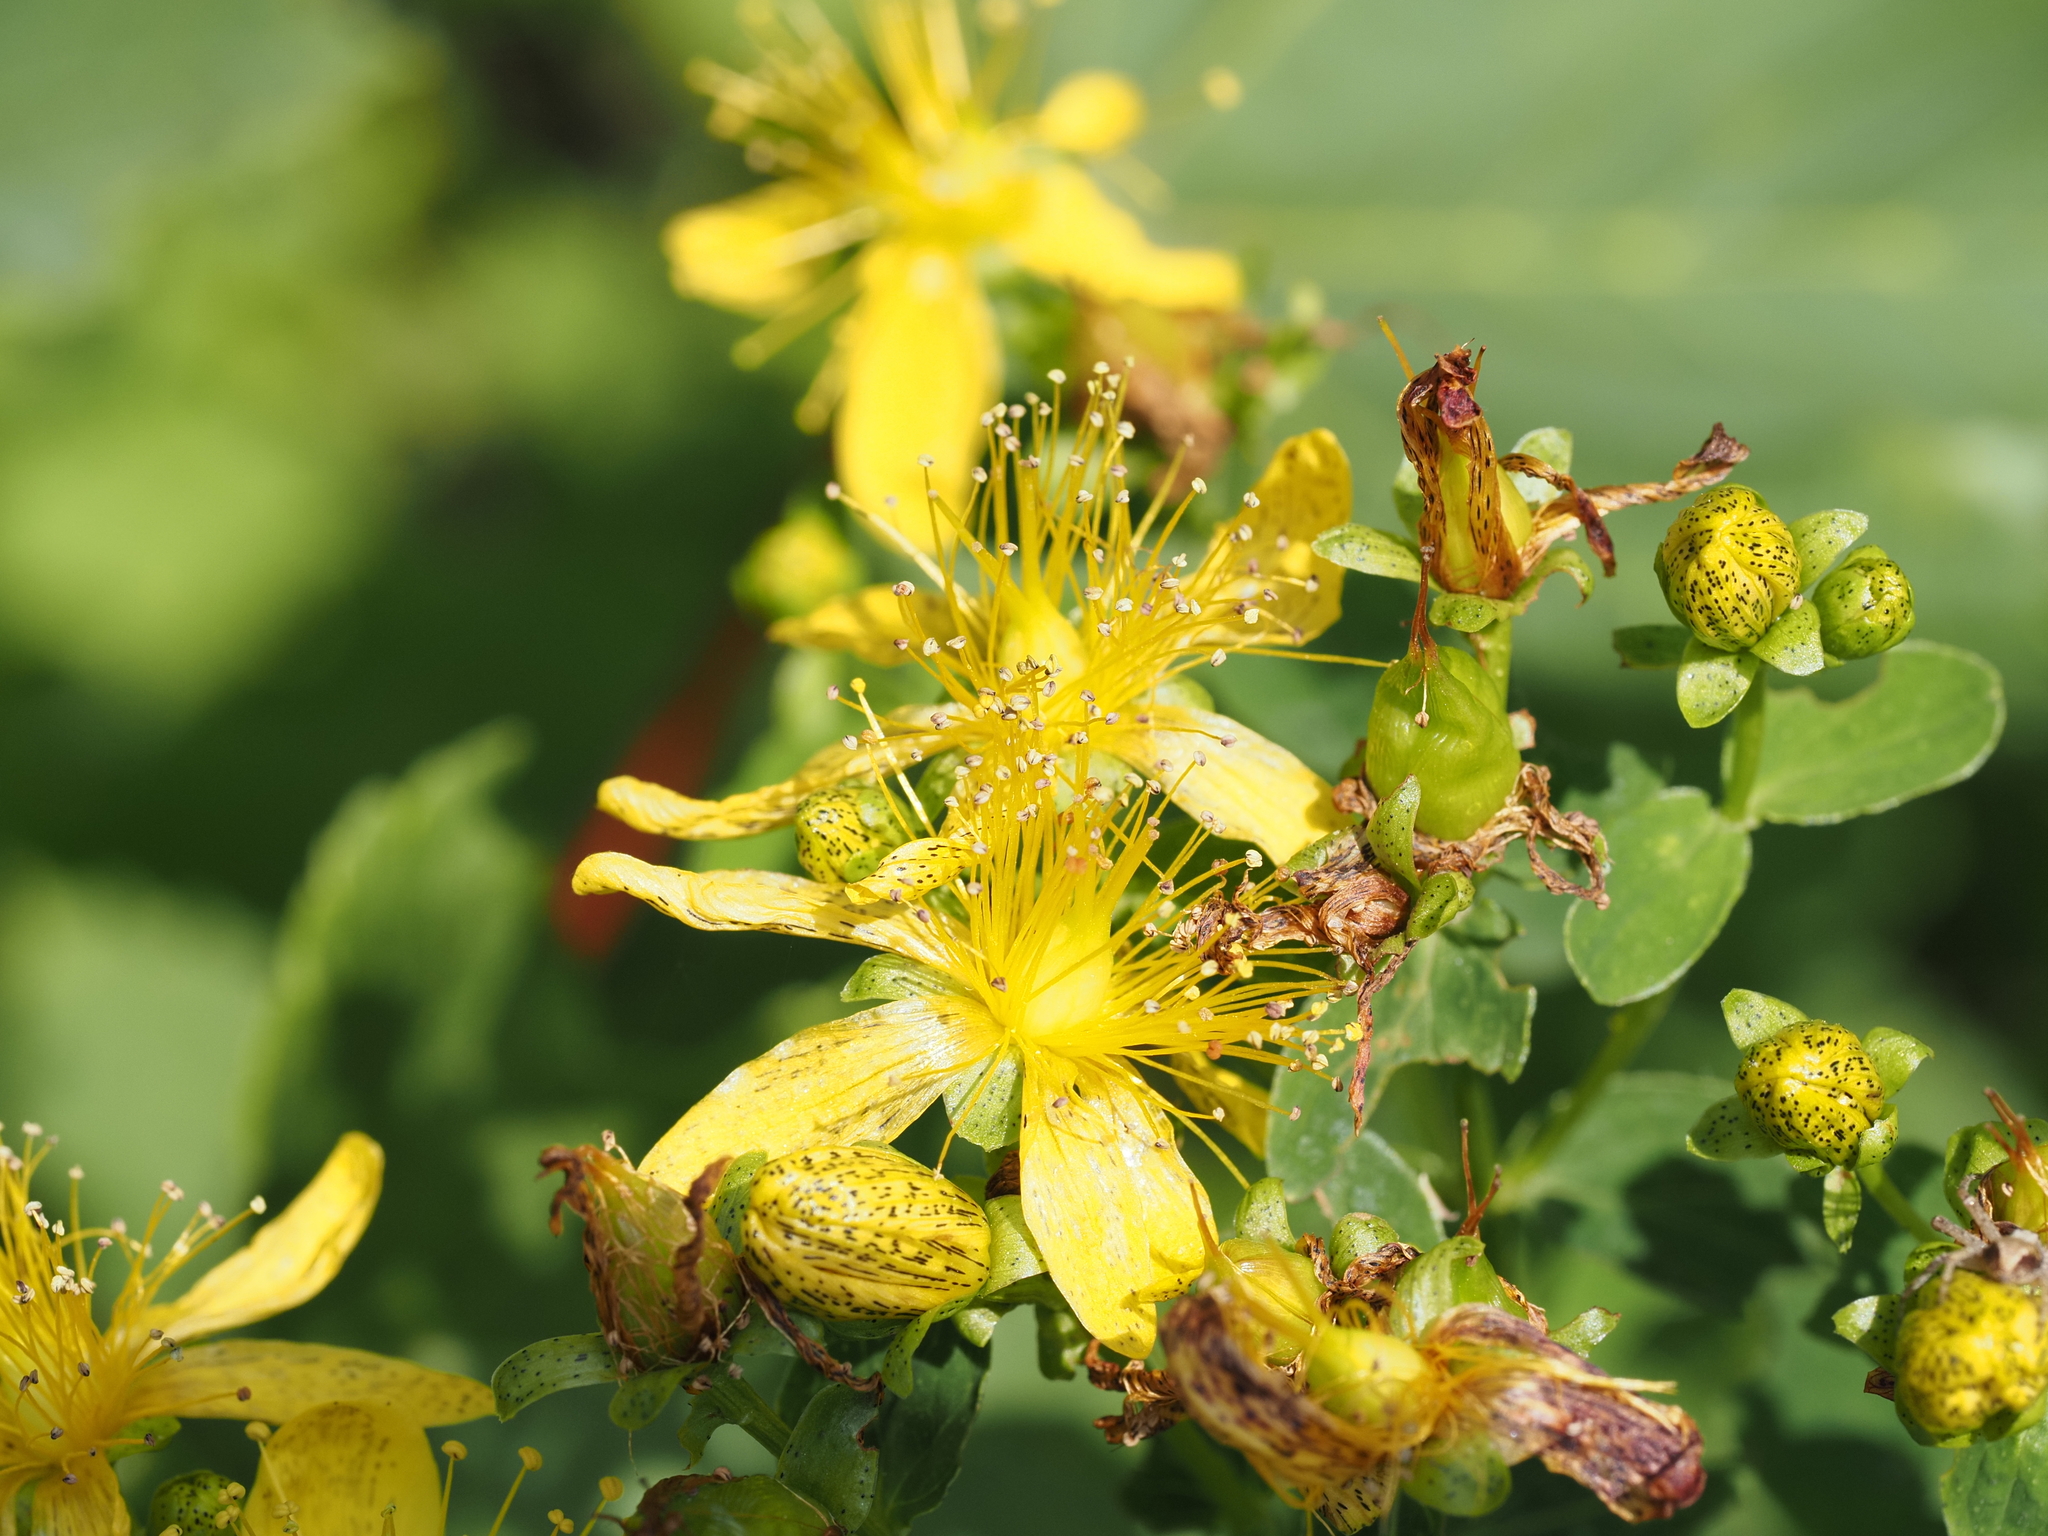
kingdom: Plantae
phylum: Tracheophyta
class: Magnoliopsida
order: Malpighiales
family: Hypericaceae
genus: Hypericum
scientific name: Hypericum maculatum
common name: Imperforate st. john's-wort
